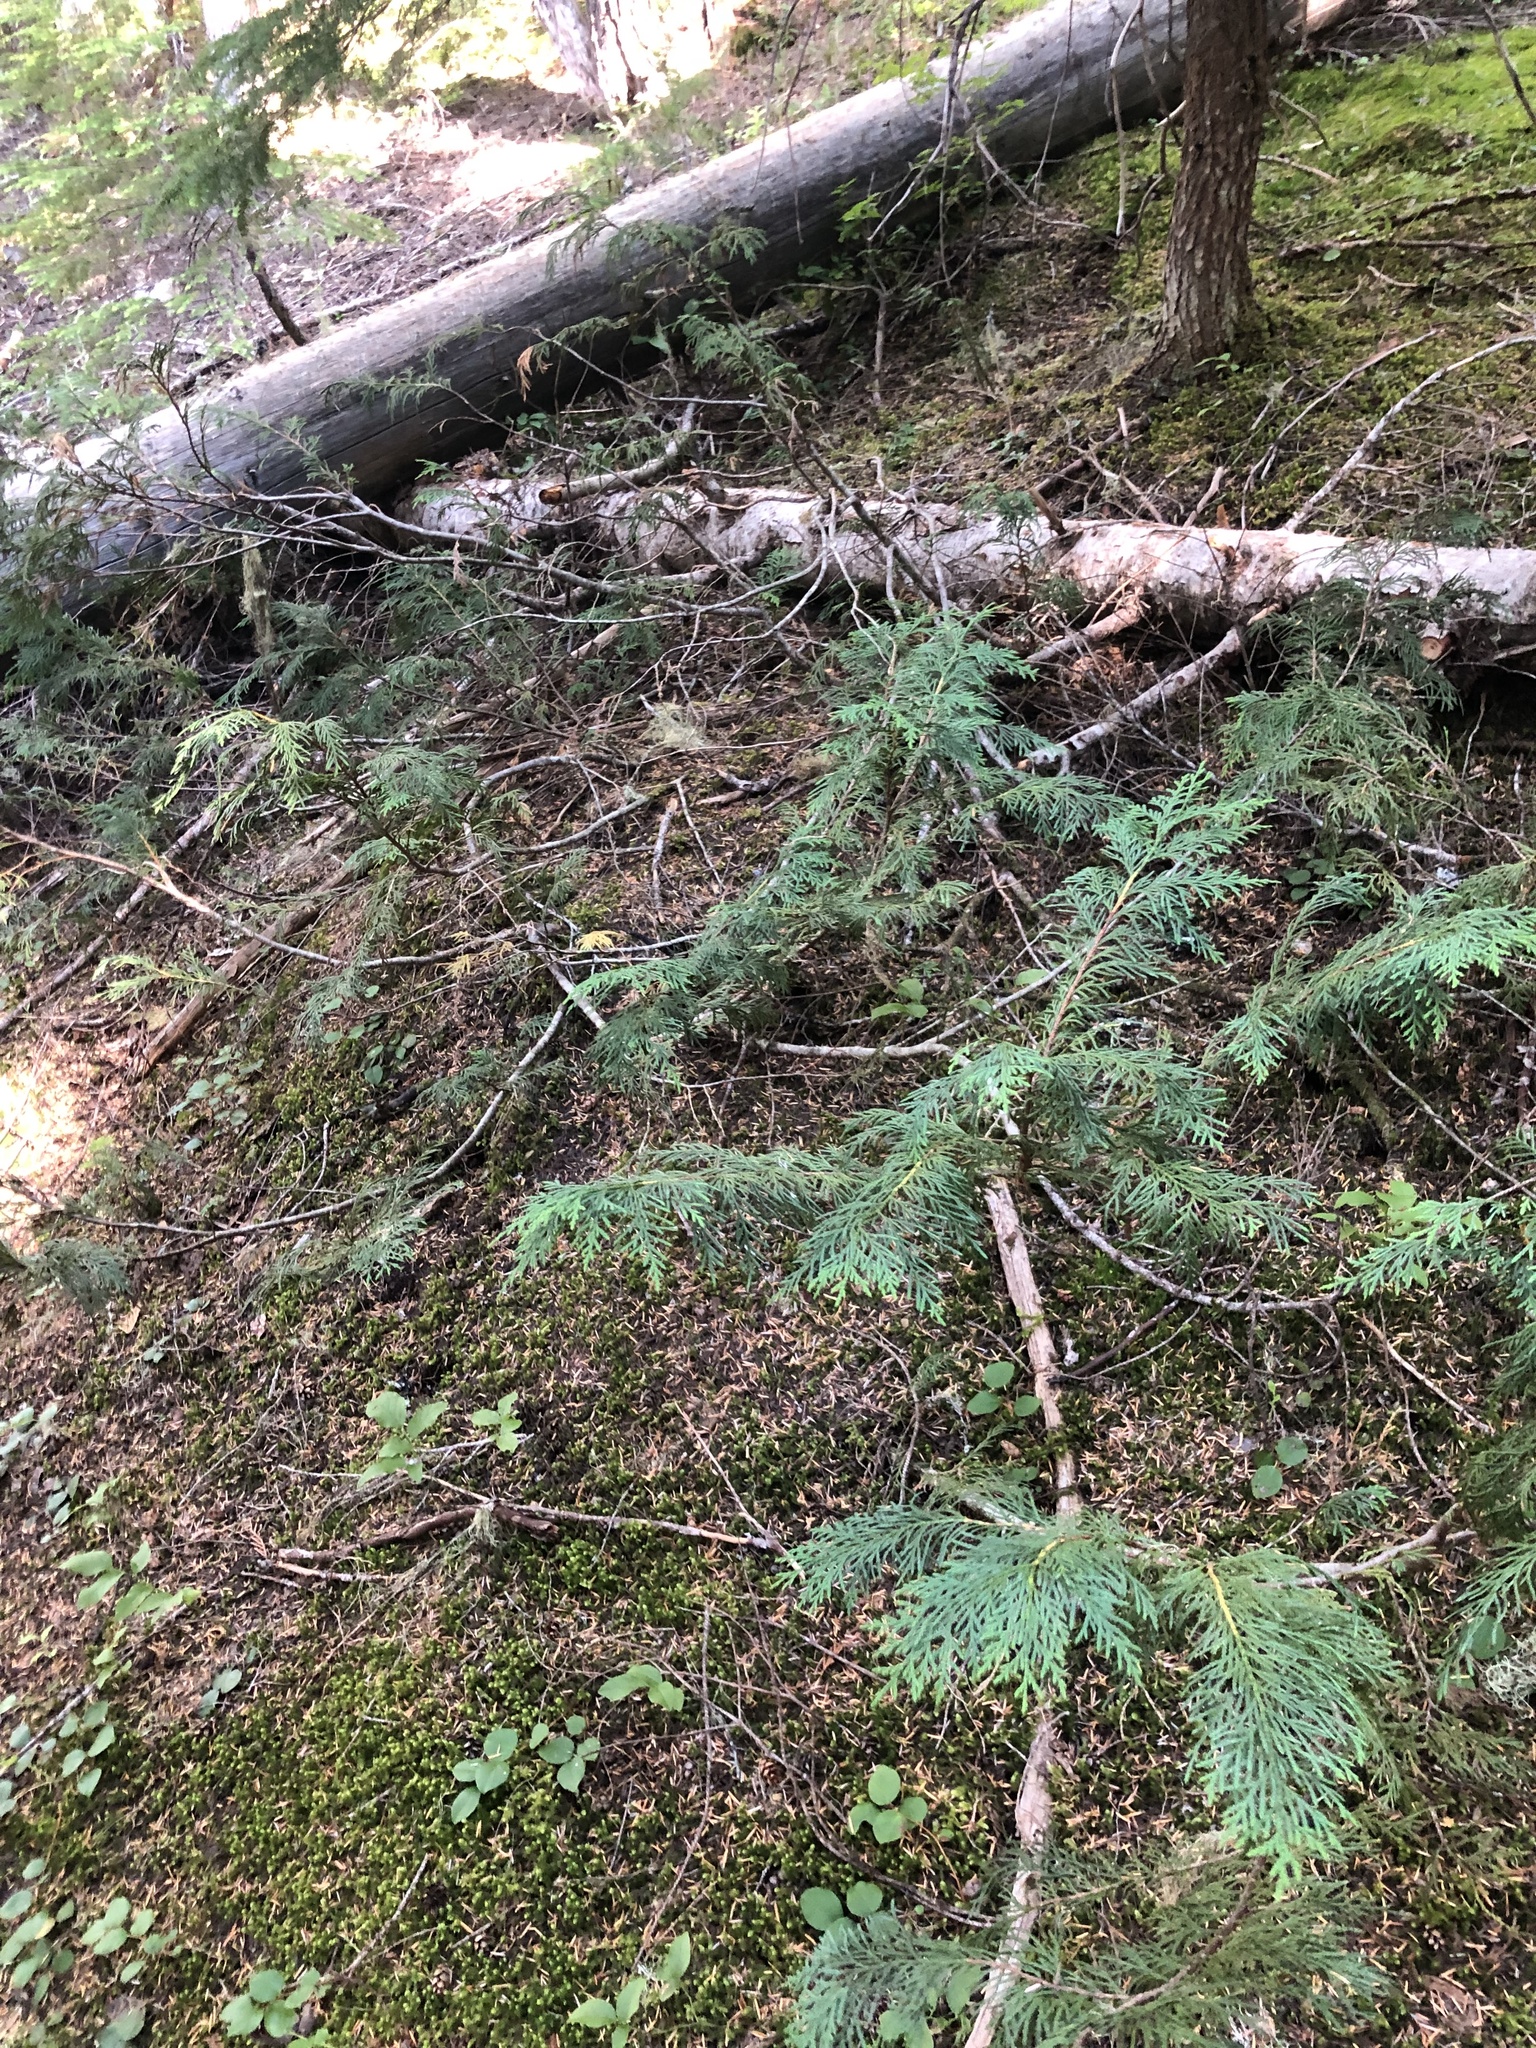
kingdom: Plantae
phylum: Tracheophyta
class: Pinopsida
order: Pinales
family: Cupressaceae
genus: Xanthocyparis
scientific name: Xanthocyparis nootkatensis
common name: Nootka cypress
